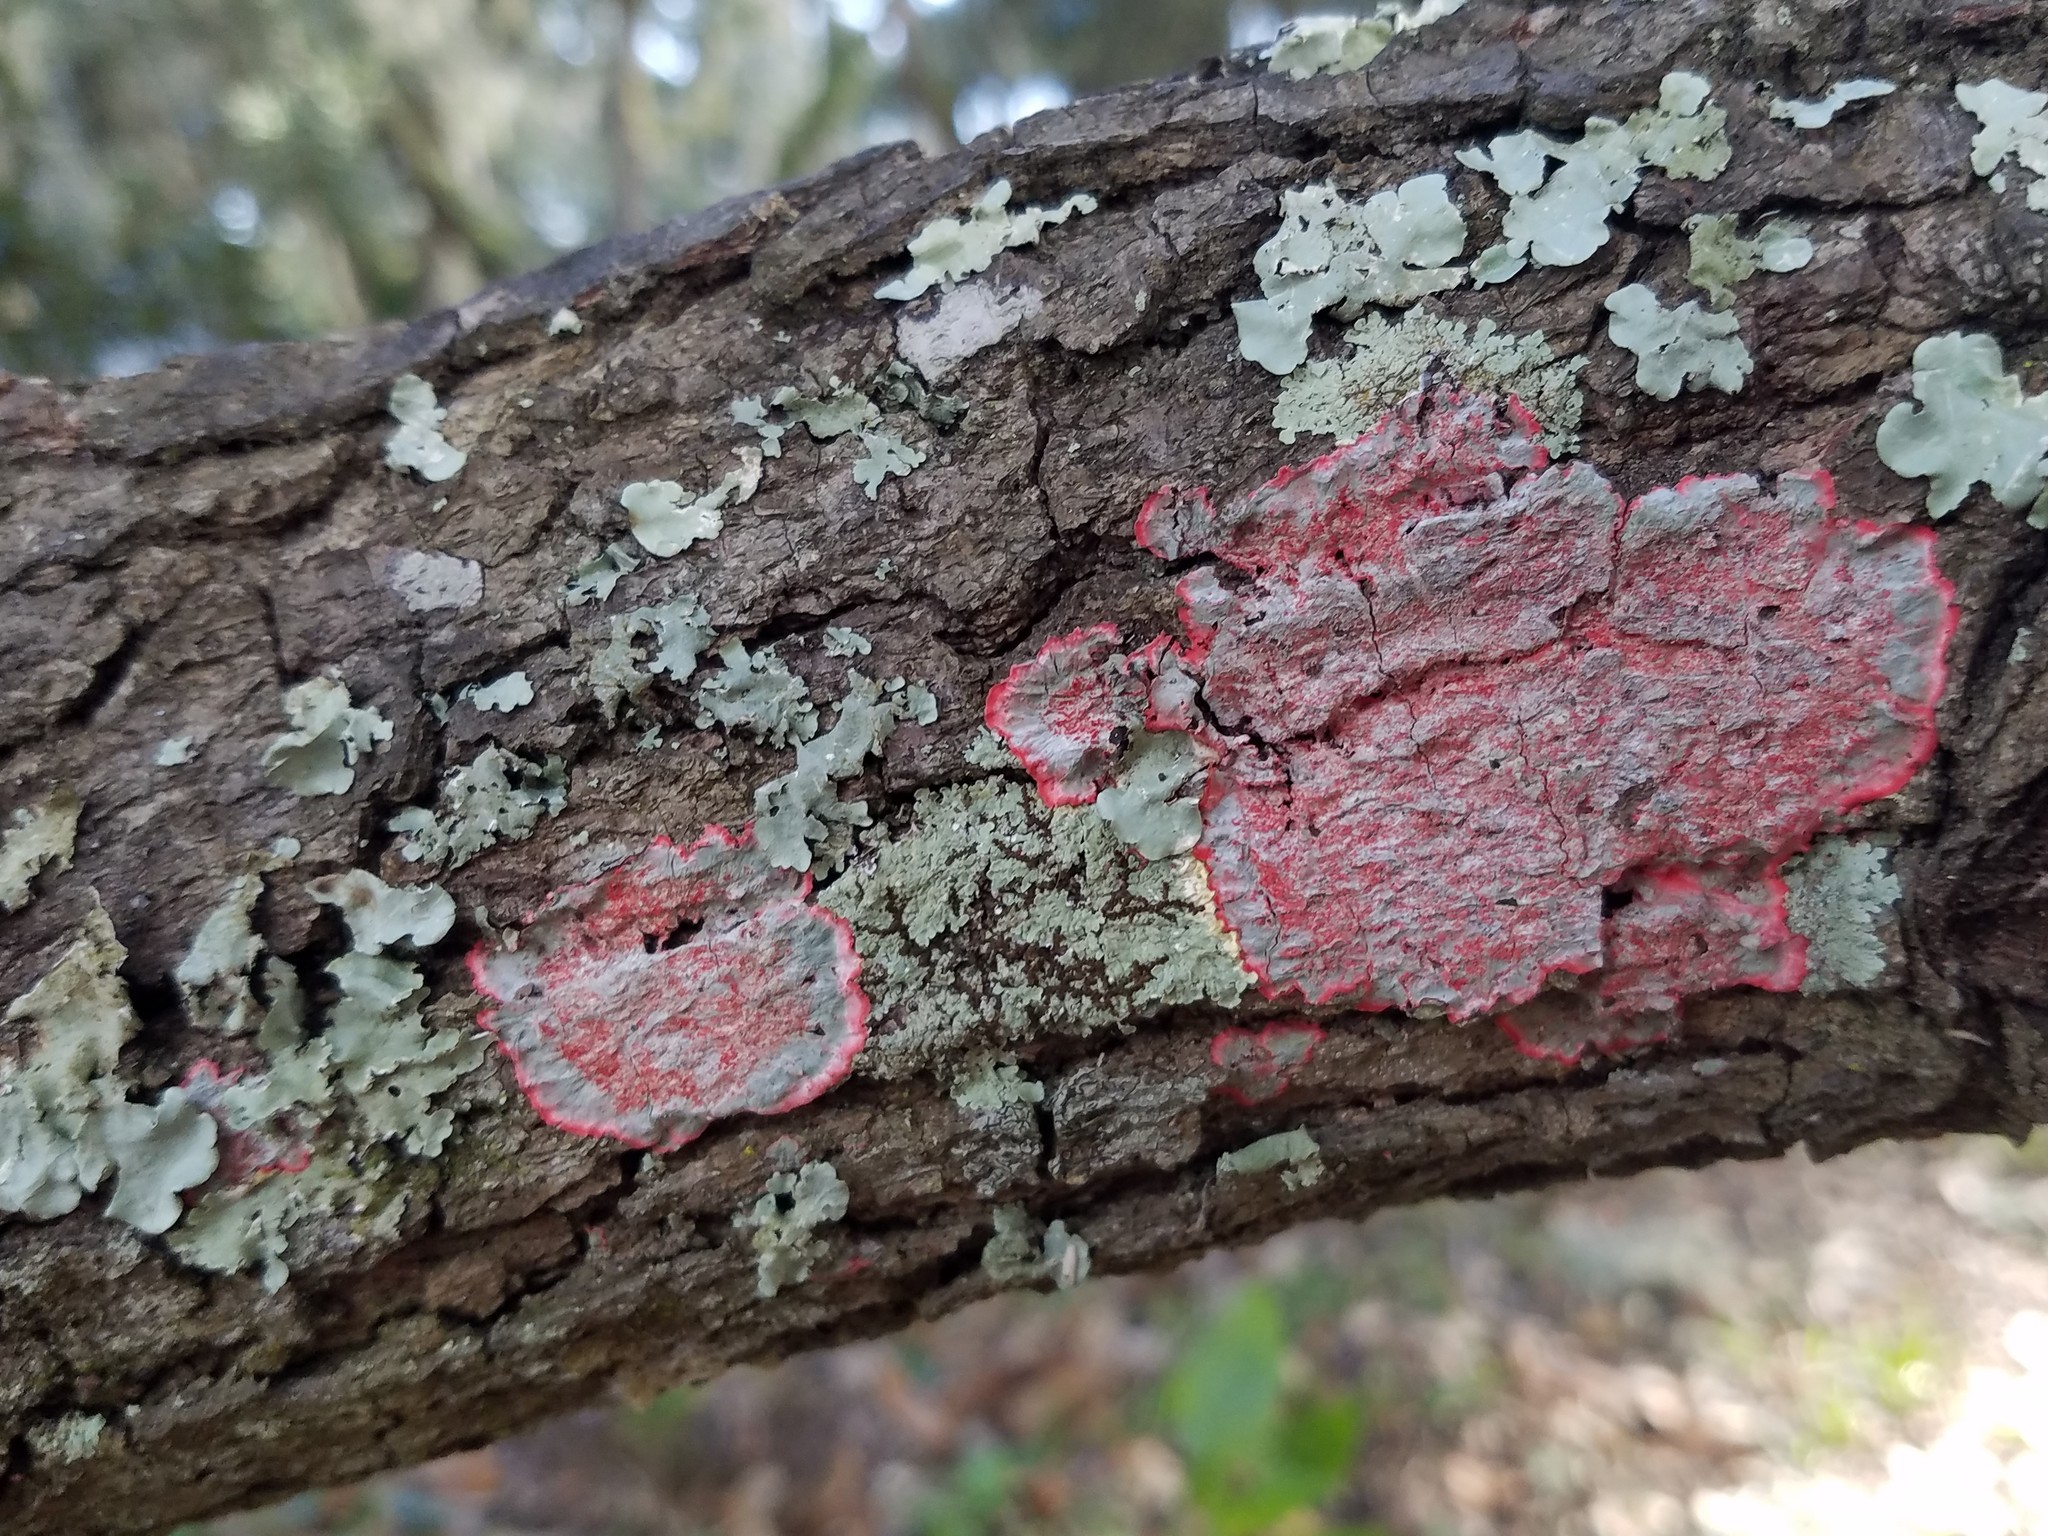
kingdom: Fungi
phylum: Ascomycota
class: Arthoniomycetes
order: Arthoniales
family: Arthoniaceae
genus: Herpothallon
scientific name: Herpothallon rubrocinctum
